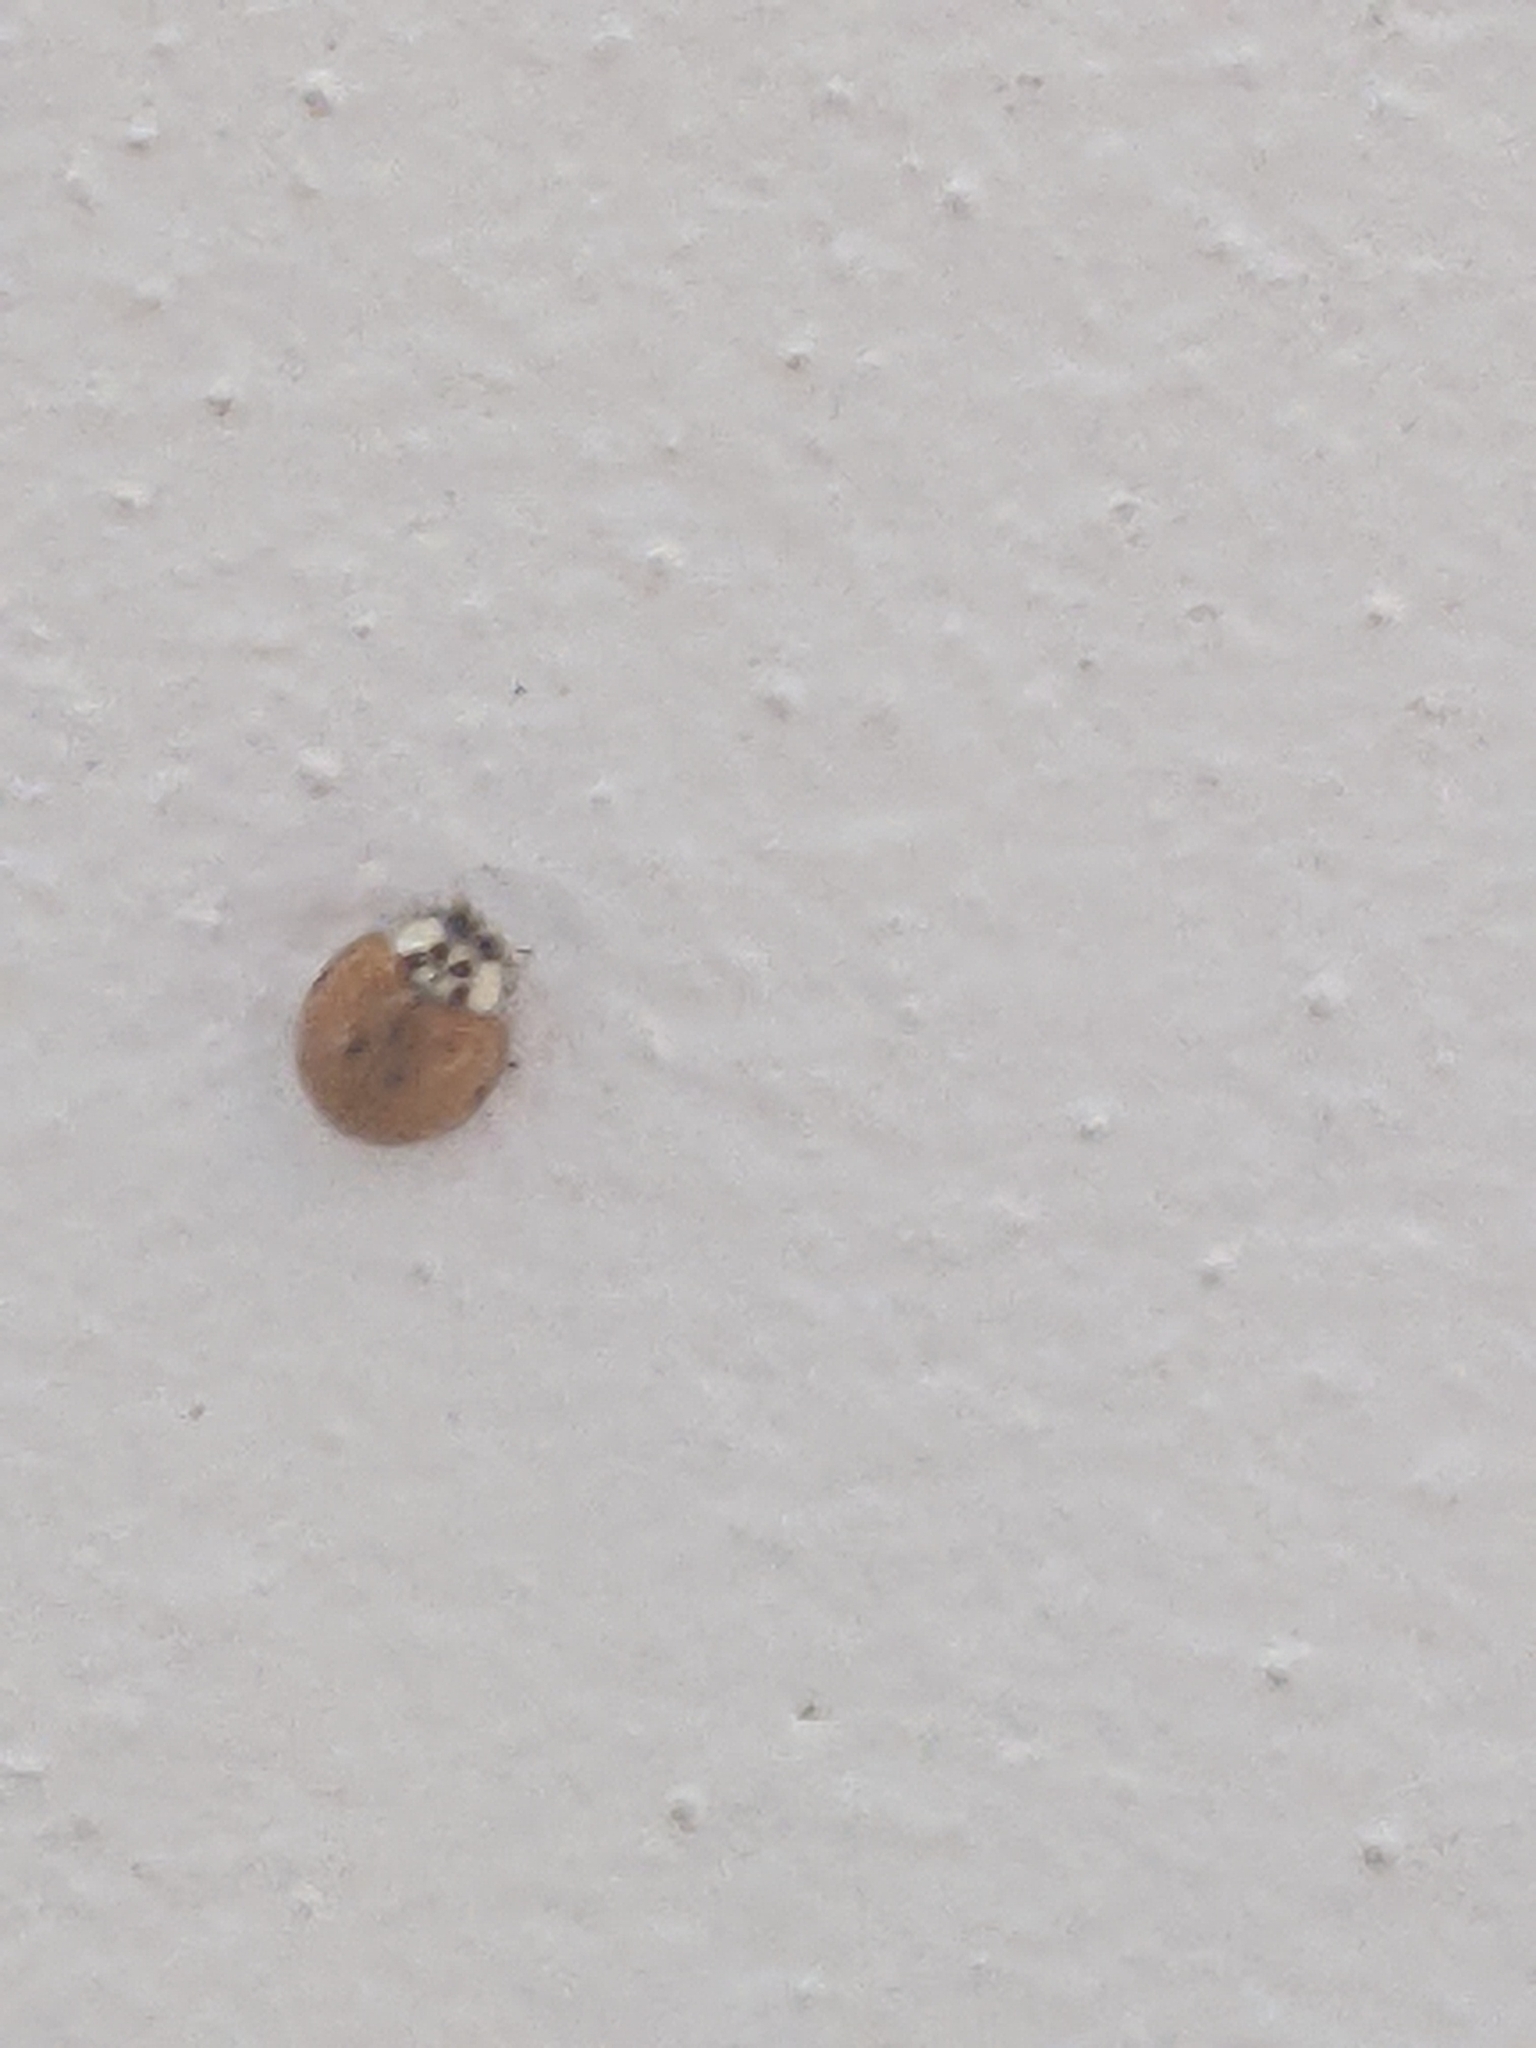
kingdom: Animalia
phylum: Arthropoda
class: Insecta
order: Coleoptera
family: Coccinellidae
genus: Harmonia
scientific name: Harmonia axyridis
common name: Harlequin ladybird
